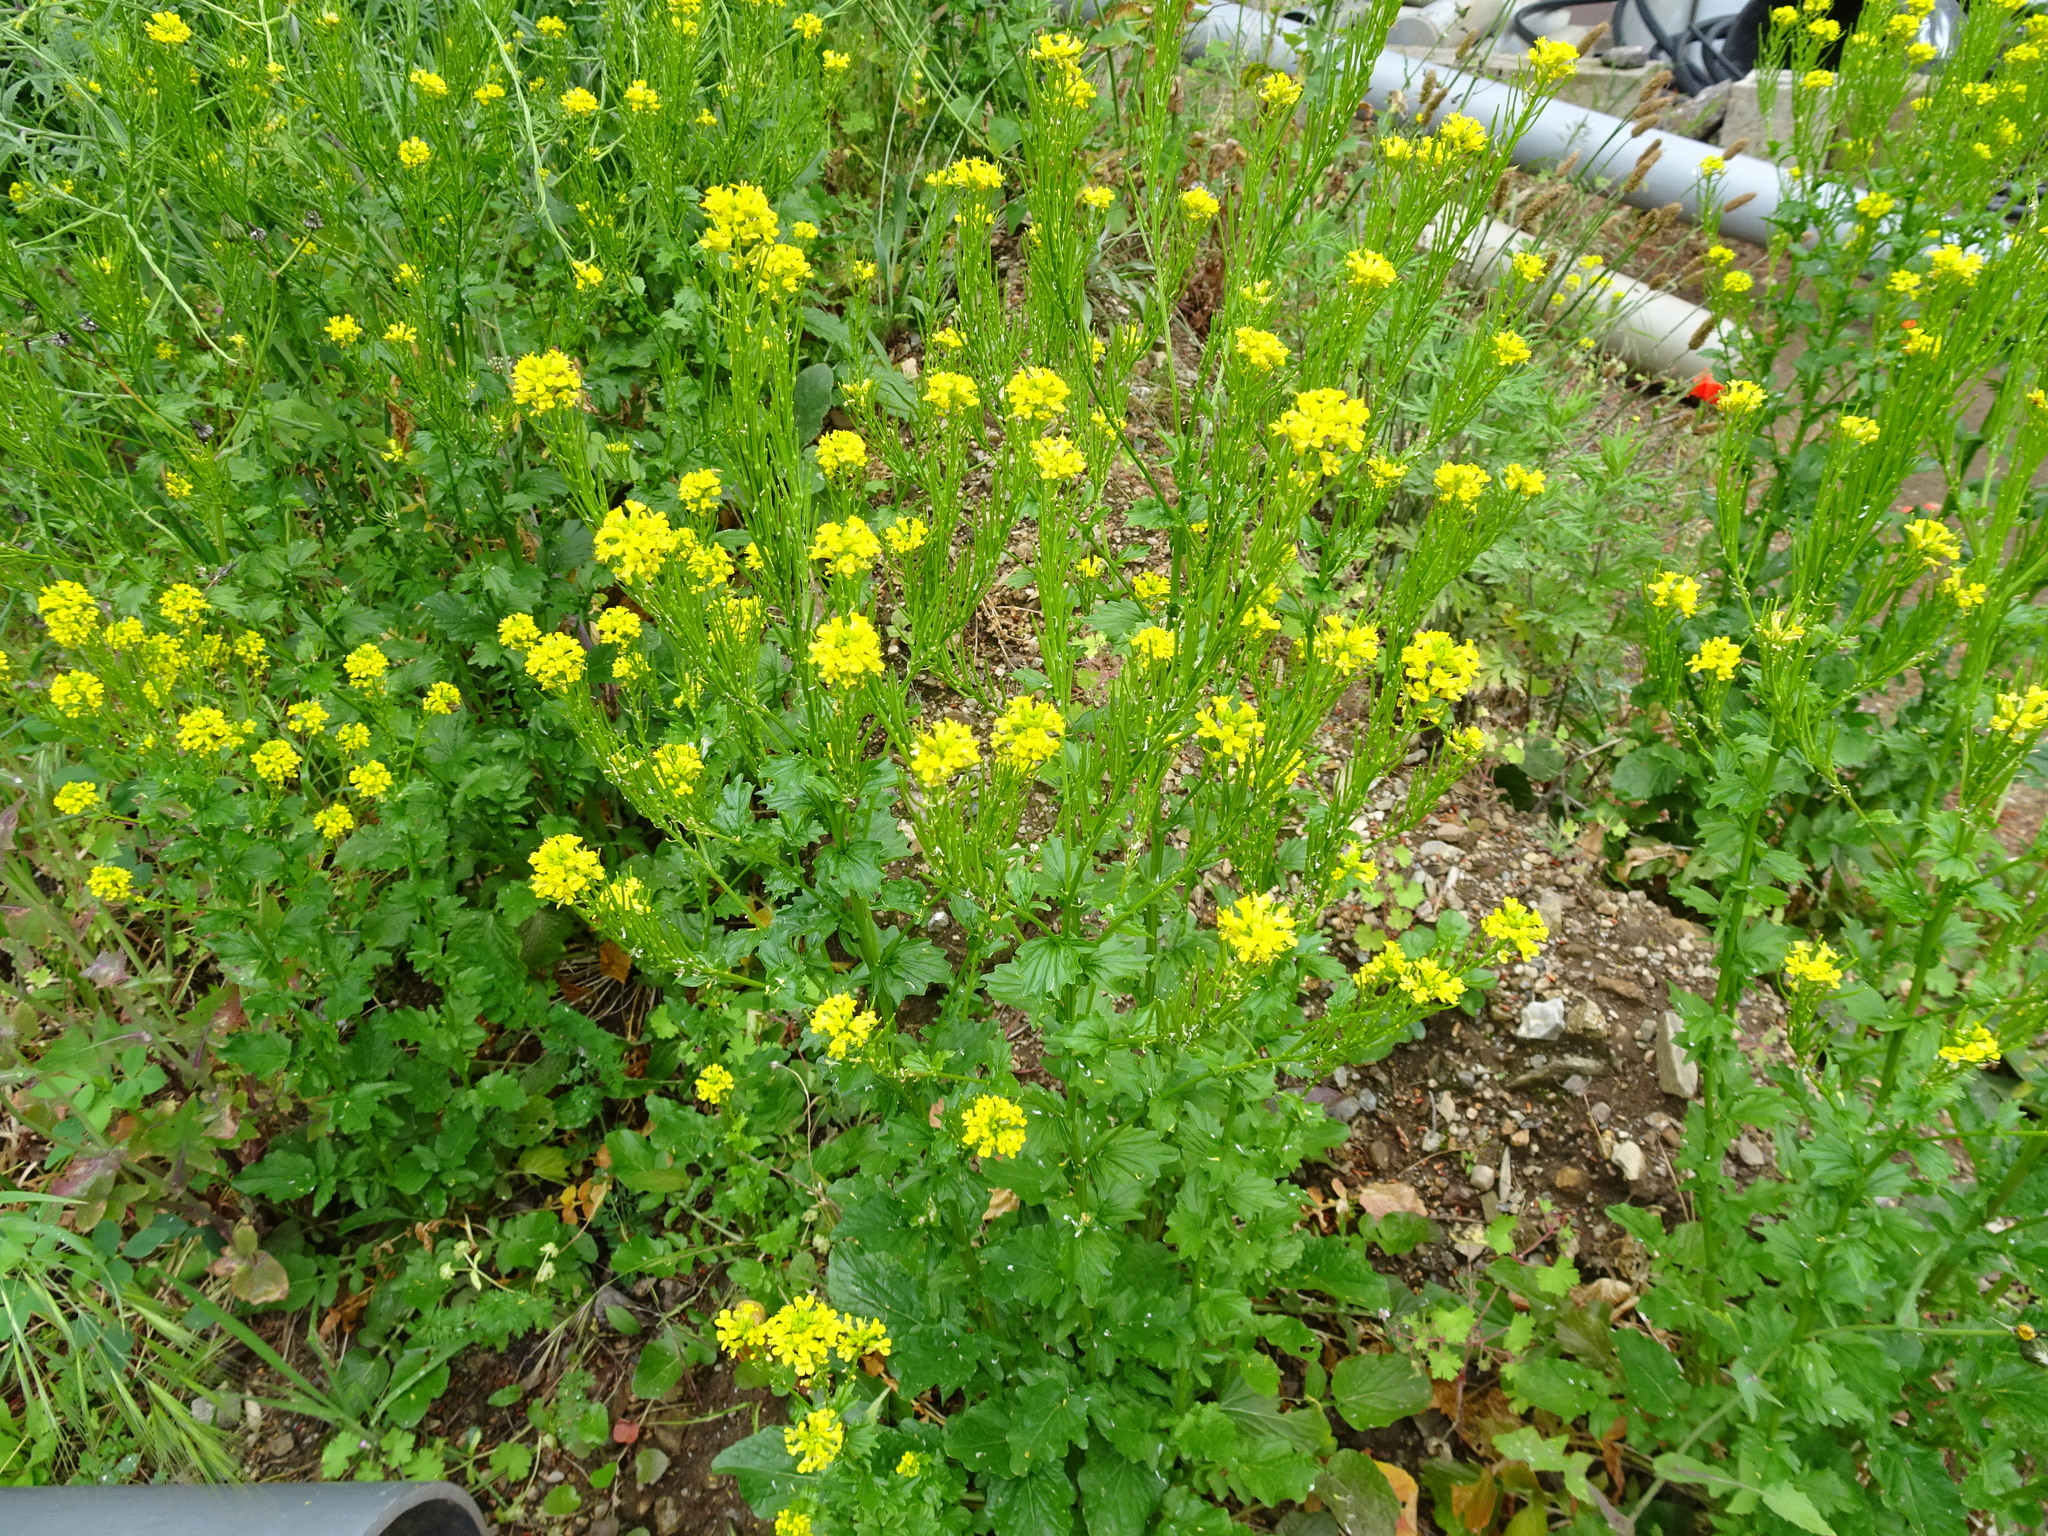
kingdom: Plantae
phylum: Tracheophyta
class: Magnoliopsida
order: Brassicales
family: Brassicaceae
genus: Barbarea
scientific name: Barbarea verna
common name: American cress
